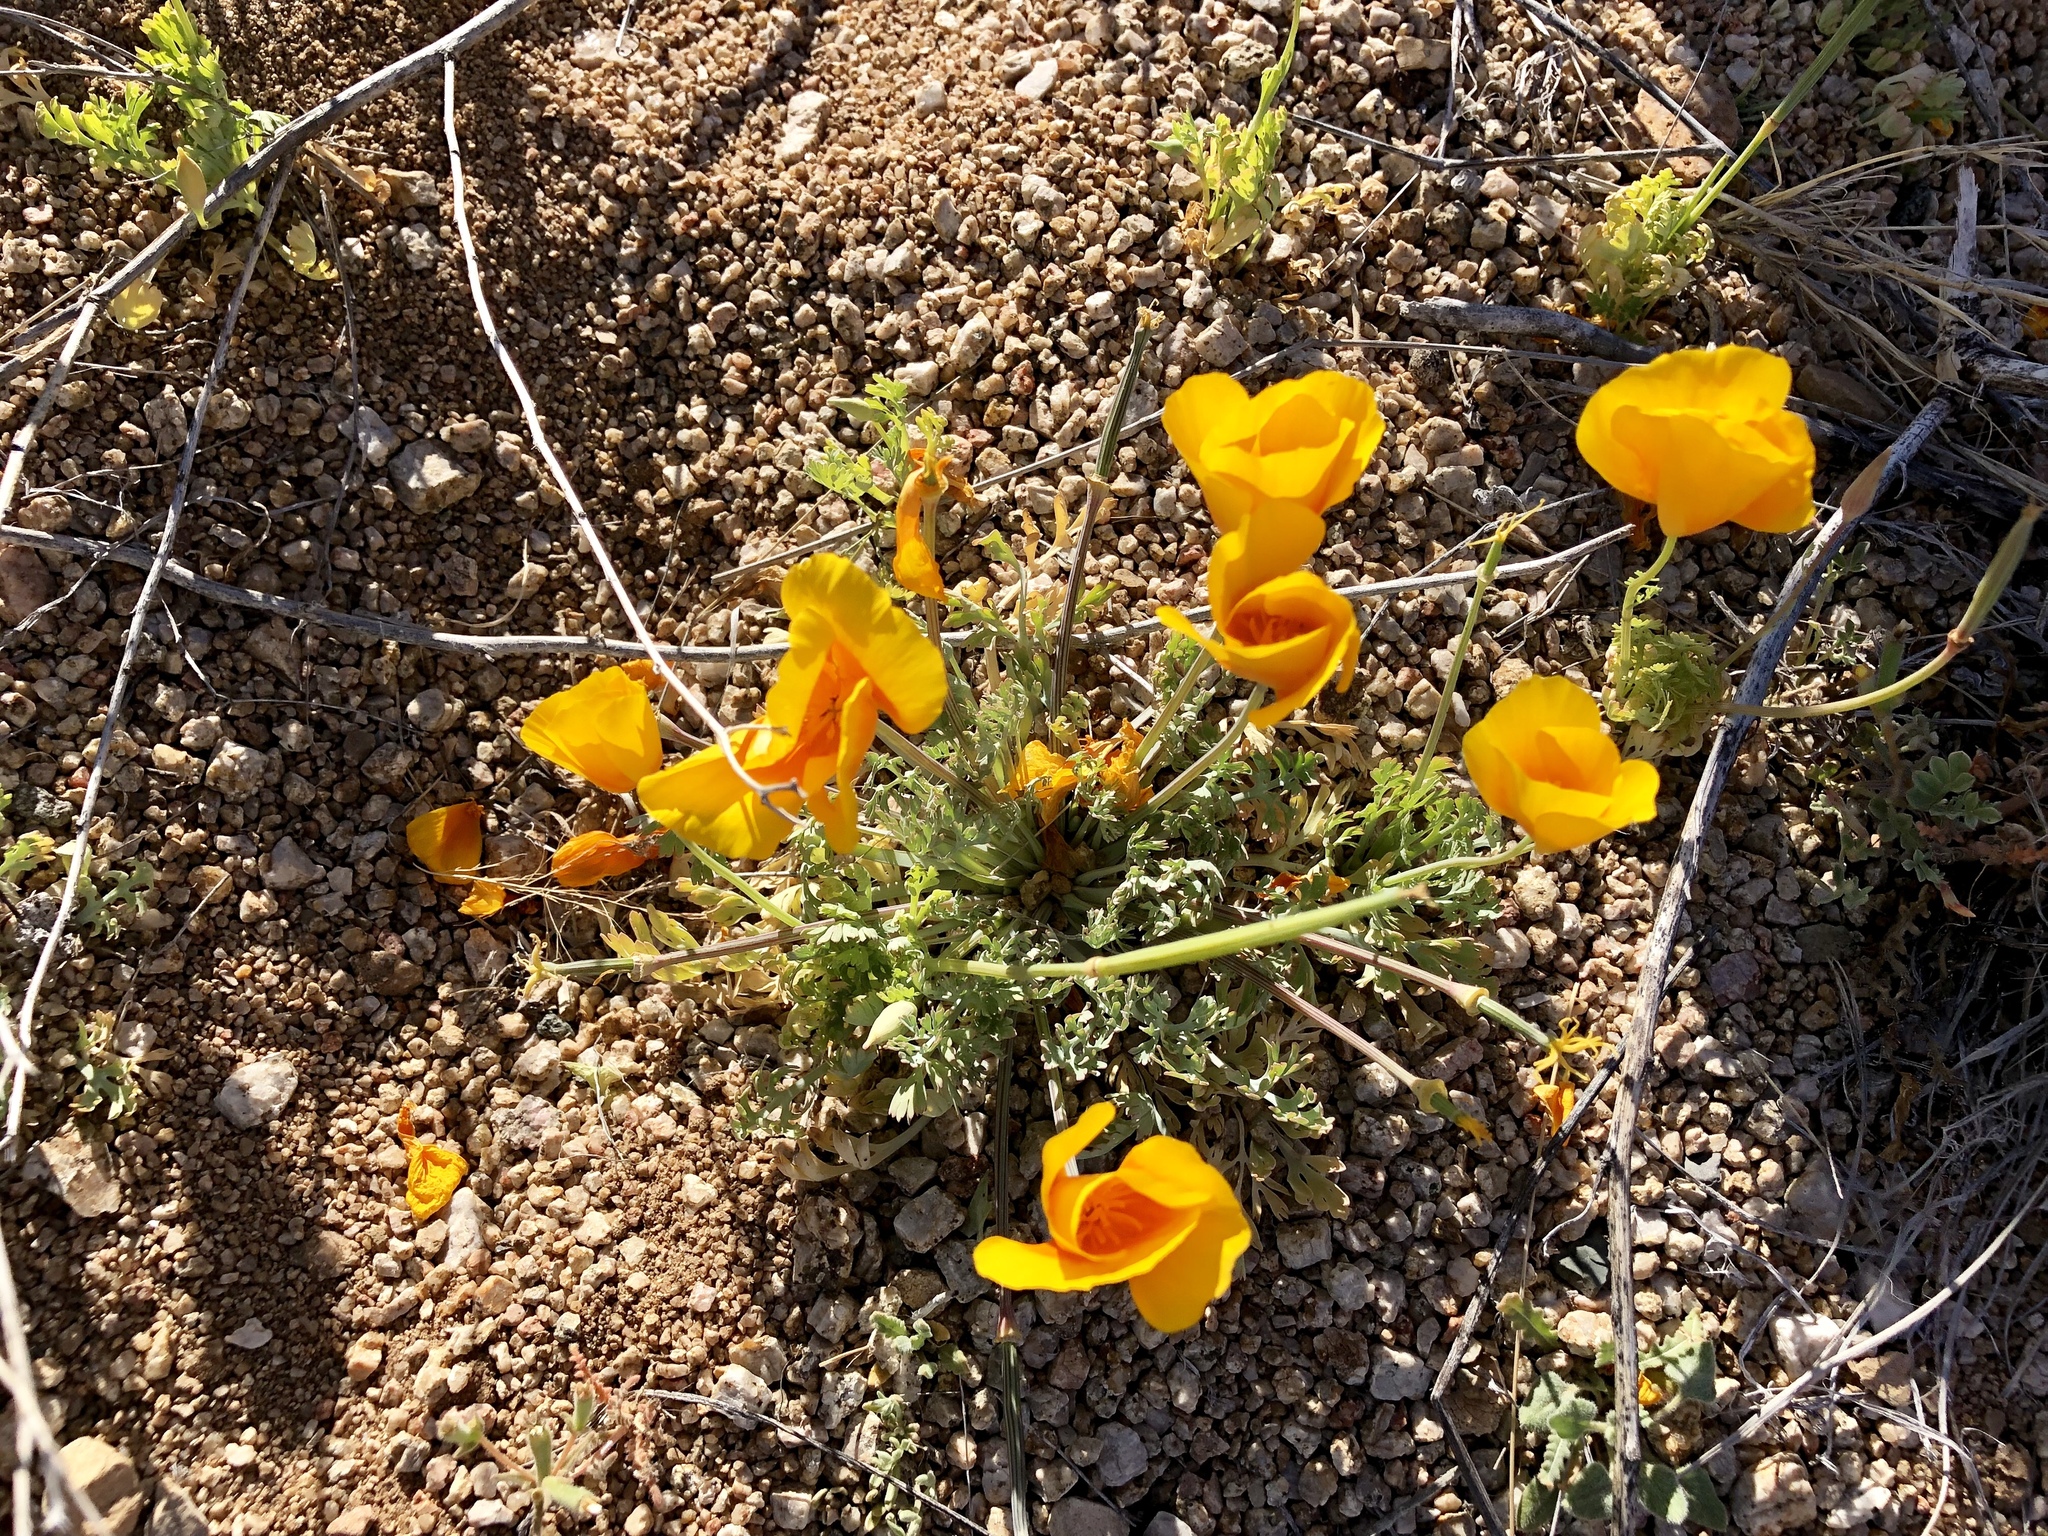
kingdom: Plantae
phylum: Tracheophyta
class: Magnoliopsida
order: Ranunculales
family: Papaveraceae
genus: Eschscholzia
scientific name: Eschscholzia californica
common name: California poppy
